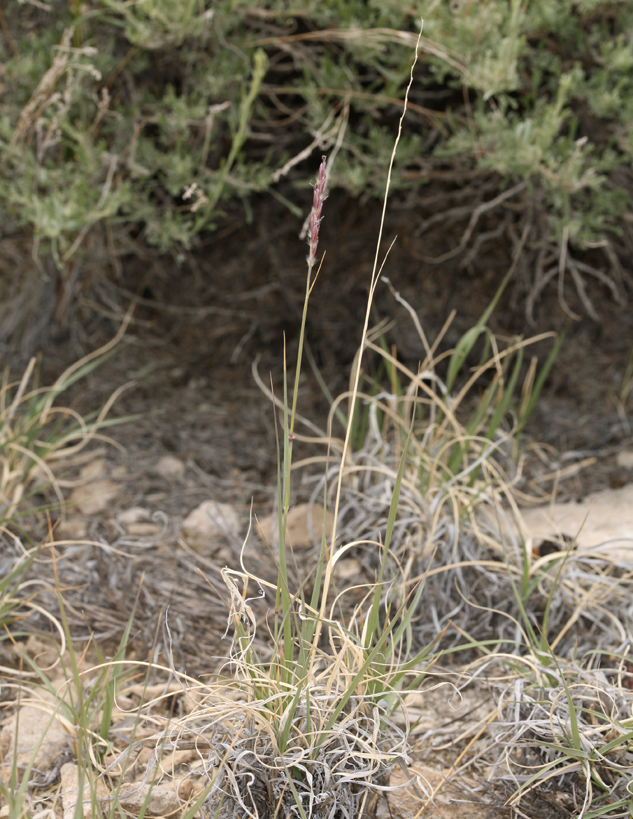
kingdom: Plantae
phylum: Tracheophyta
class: Liliopsida
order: Poales
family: Poaceae
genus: Hilaria
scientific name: Hilaria jamesii
